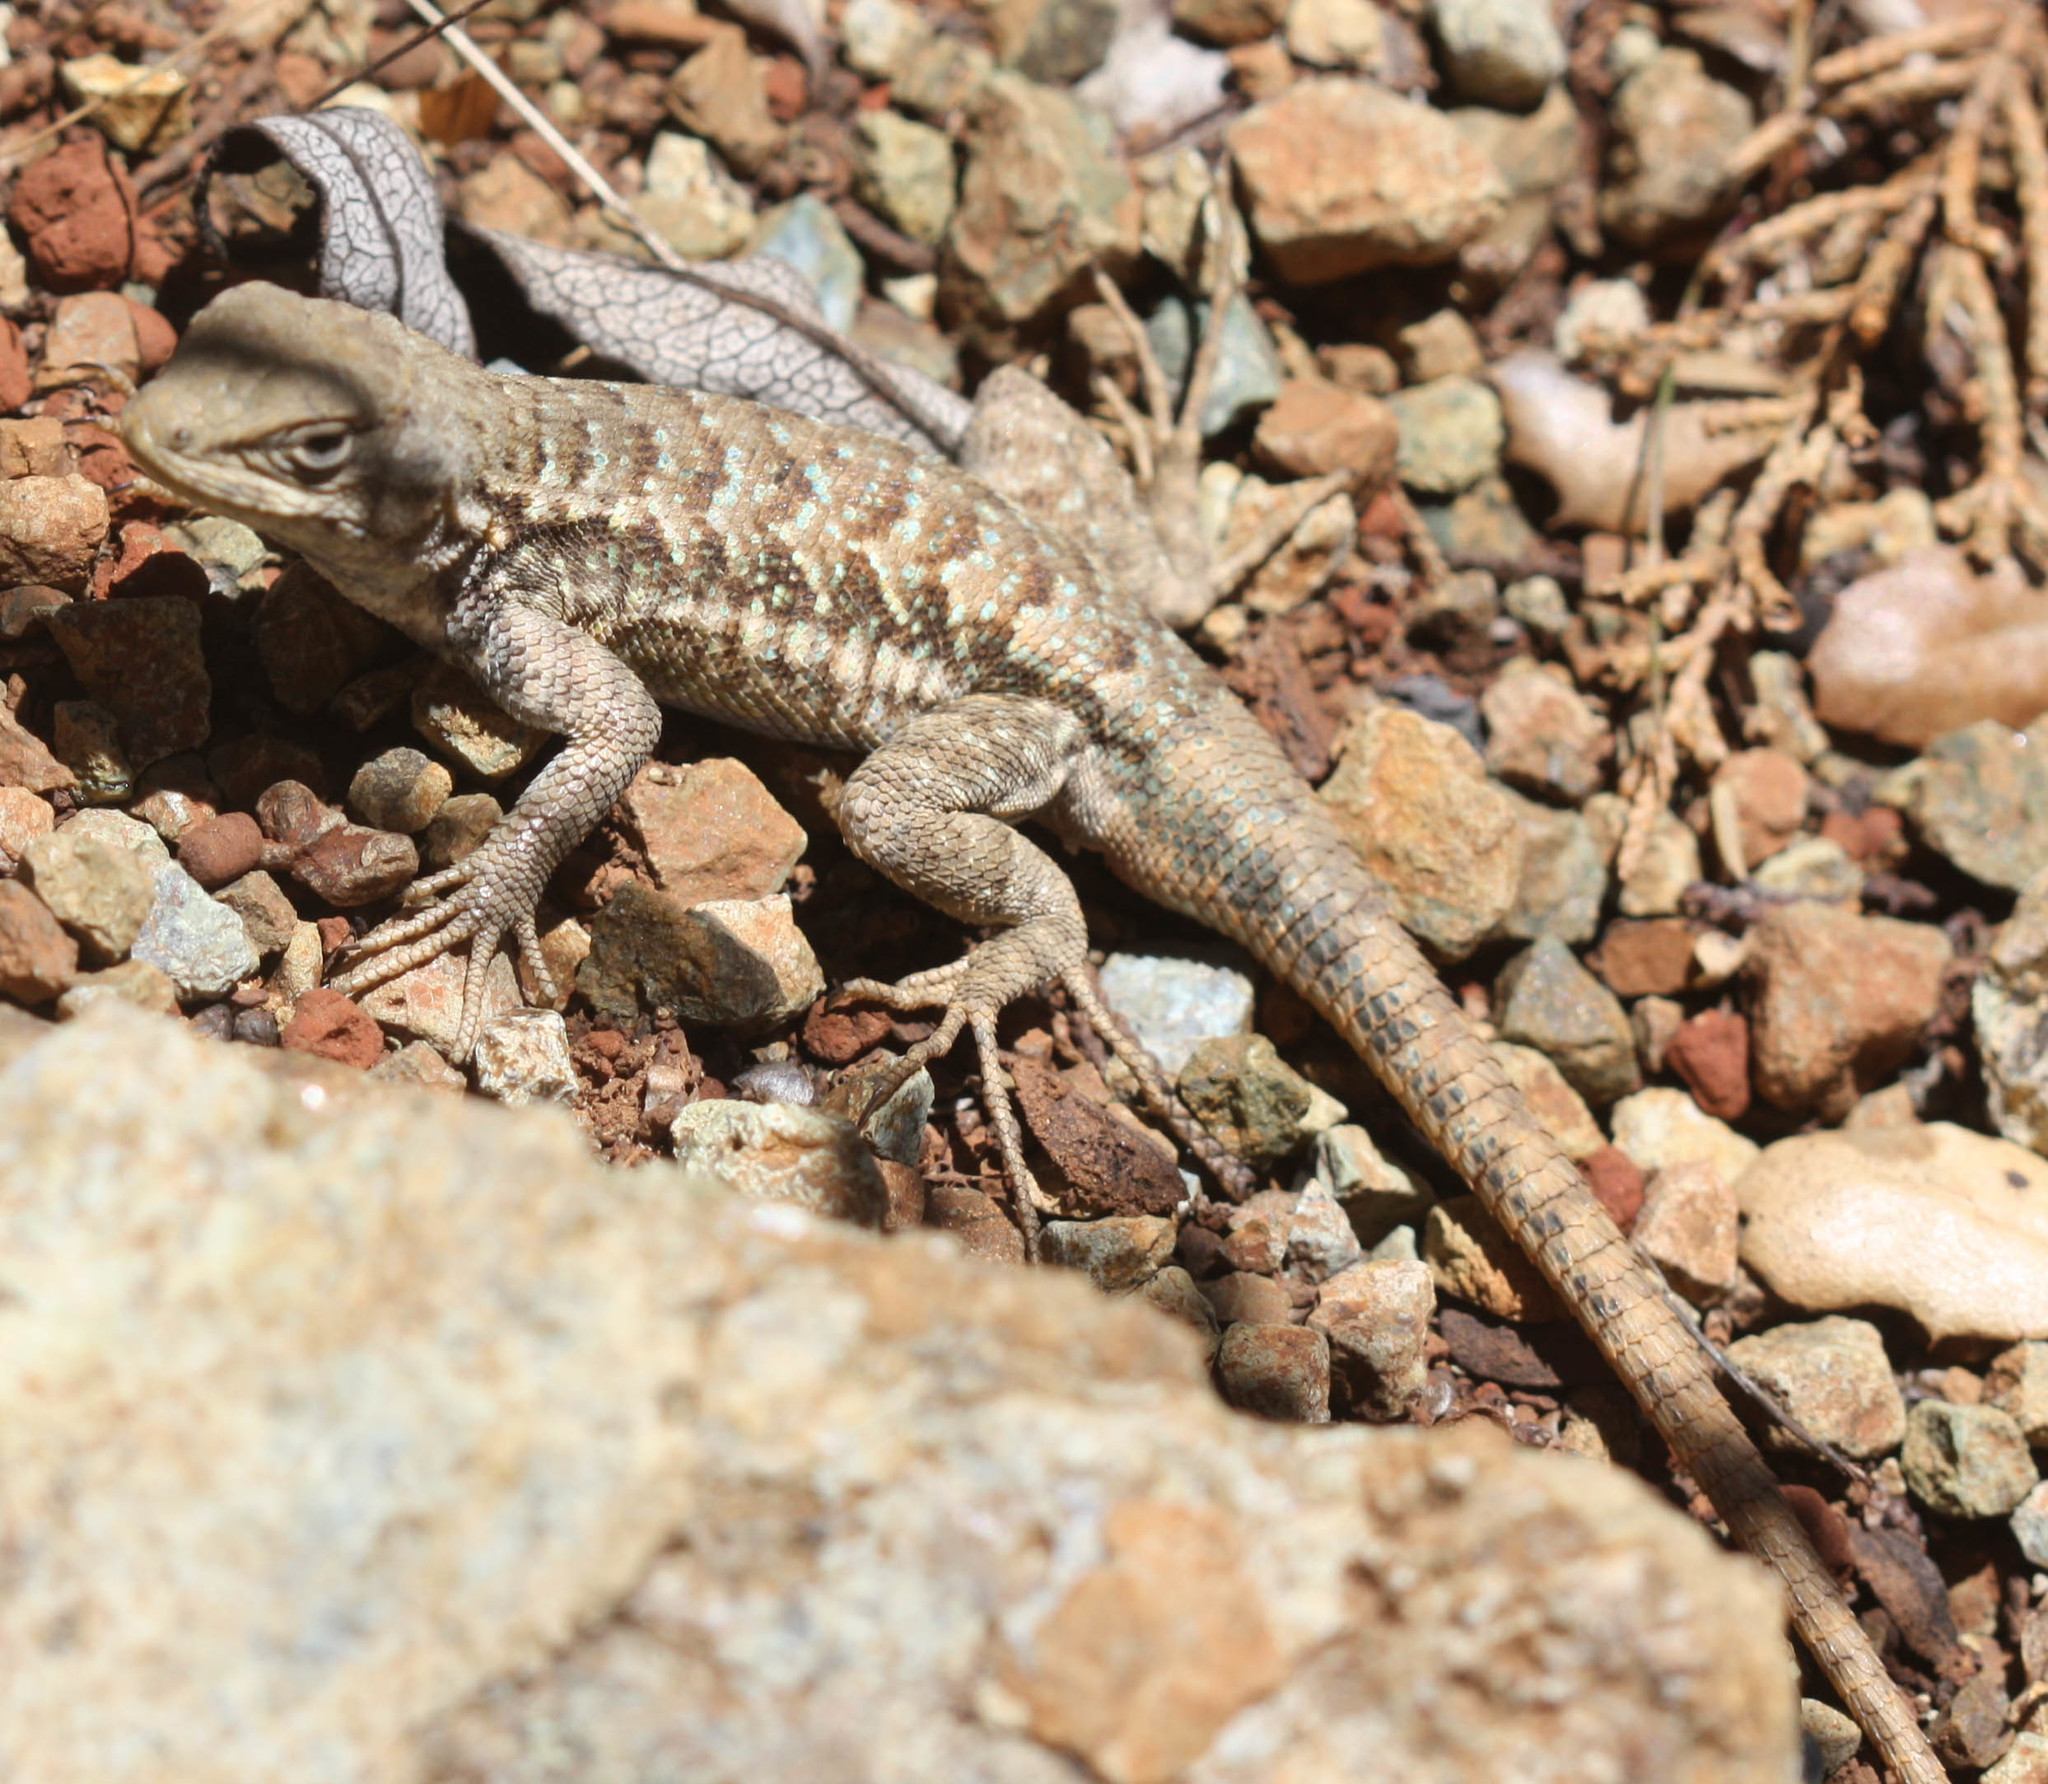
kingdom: Animalia
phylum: Chordata
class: Squamata
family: Phrynosomatidae
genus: Sceloporus
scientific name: Sceloporus graciosus
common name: Sagebrush lizard
